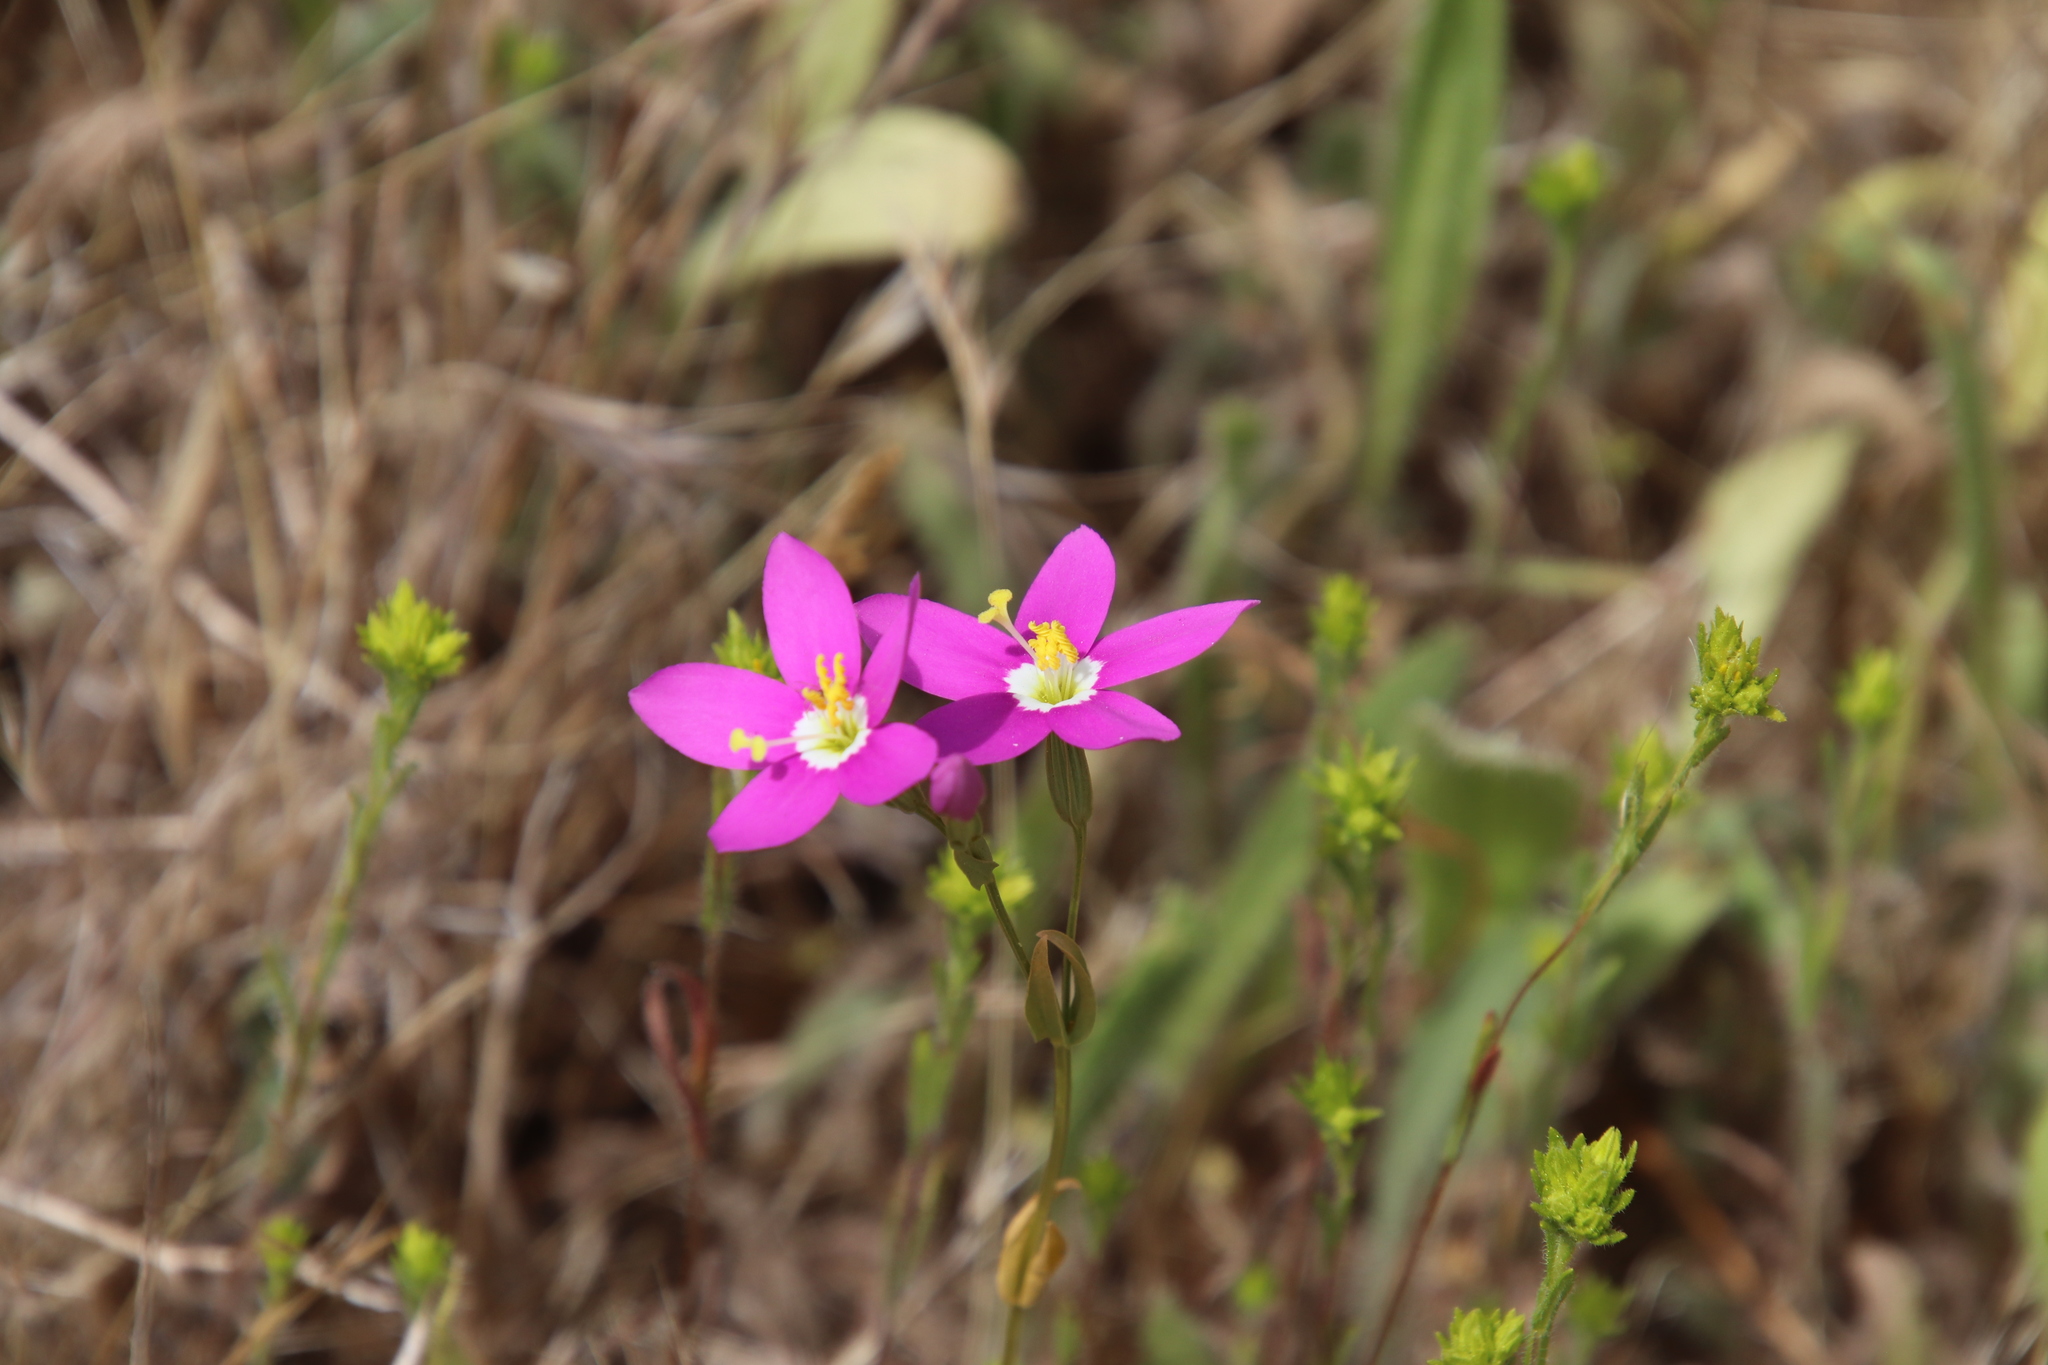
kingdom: Plantae
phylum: Tracheophyta
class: Magnoliopsida
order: Gentianales
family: Gentianaceae
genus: Zeltnera
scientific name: Zeltnera venusta
